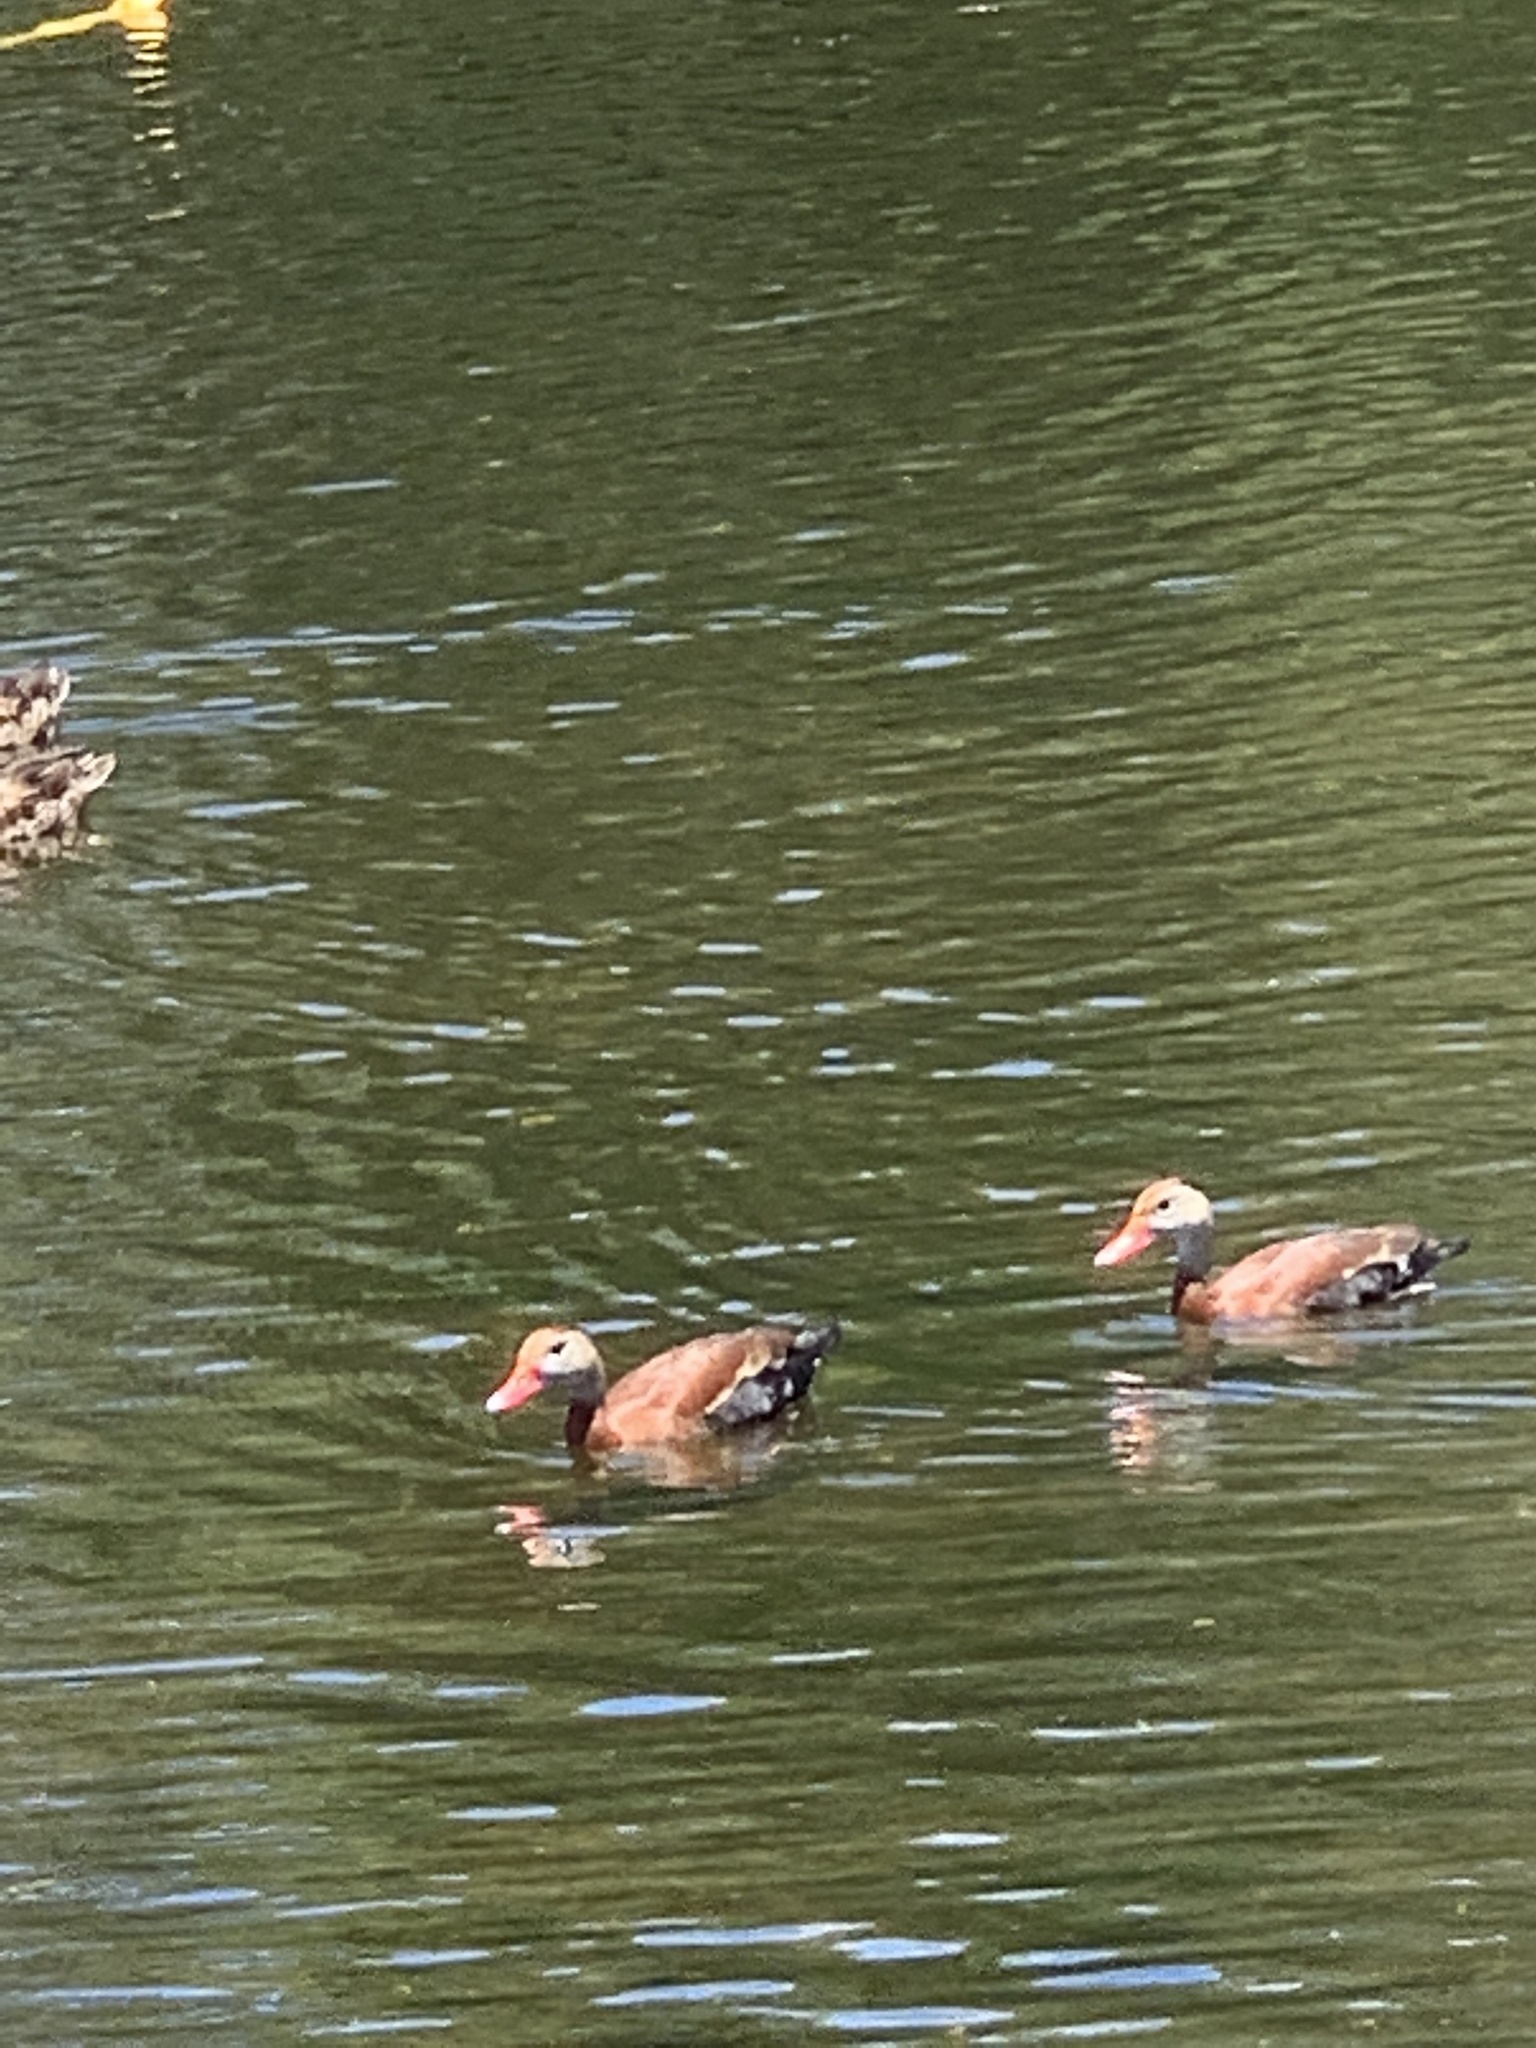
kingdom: Animalia
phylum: Chordata
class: Aves
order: Anseriformes
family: Anatidae
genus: Dendrocygna
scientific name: Dendrocygna autumnalis
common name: Black-bellied whistling duck
